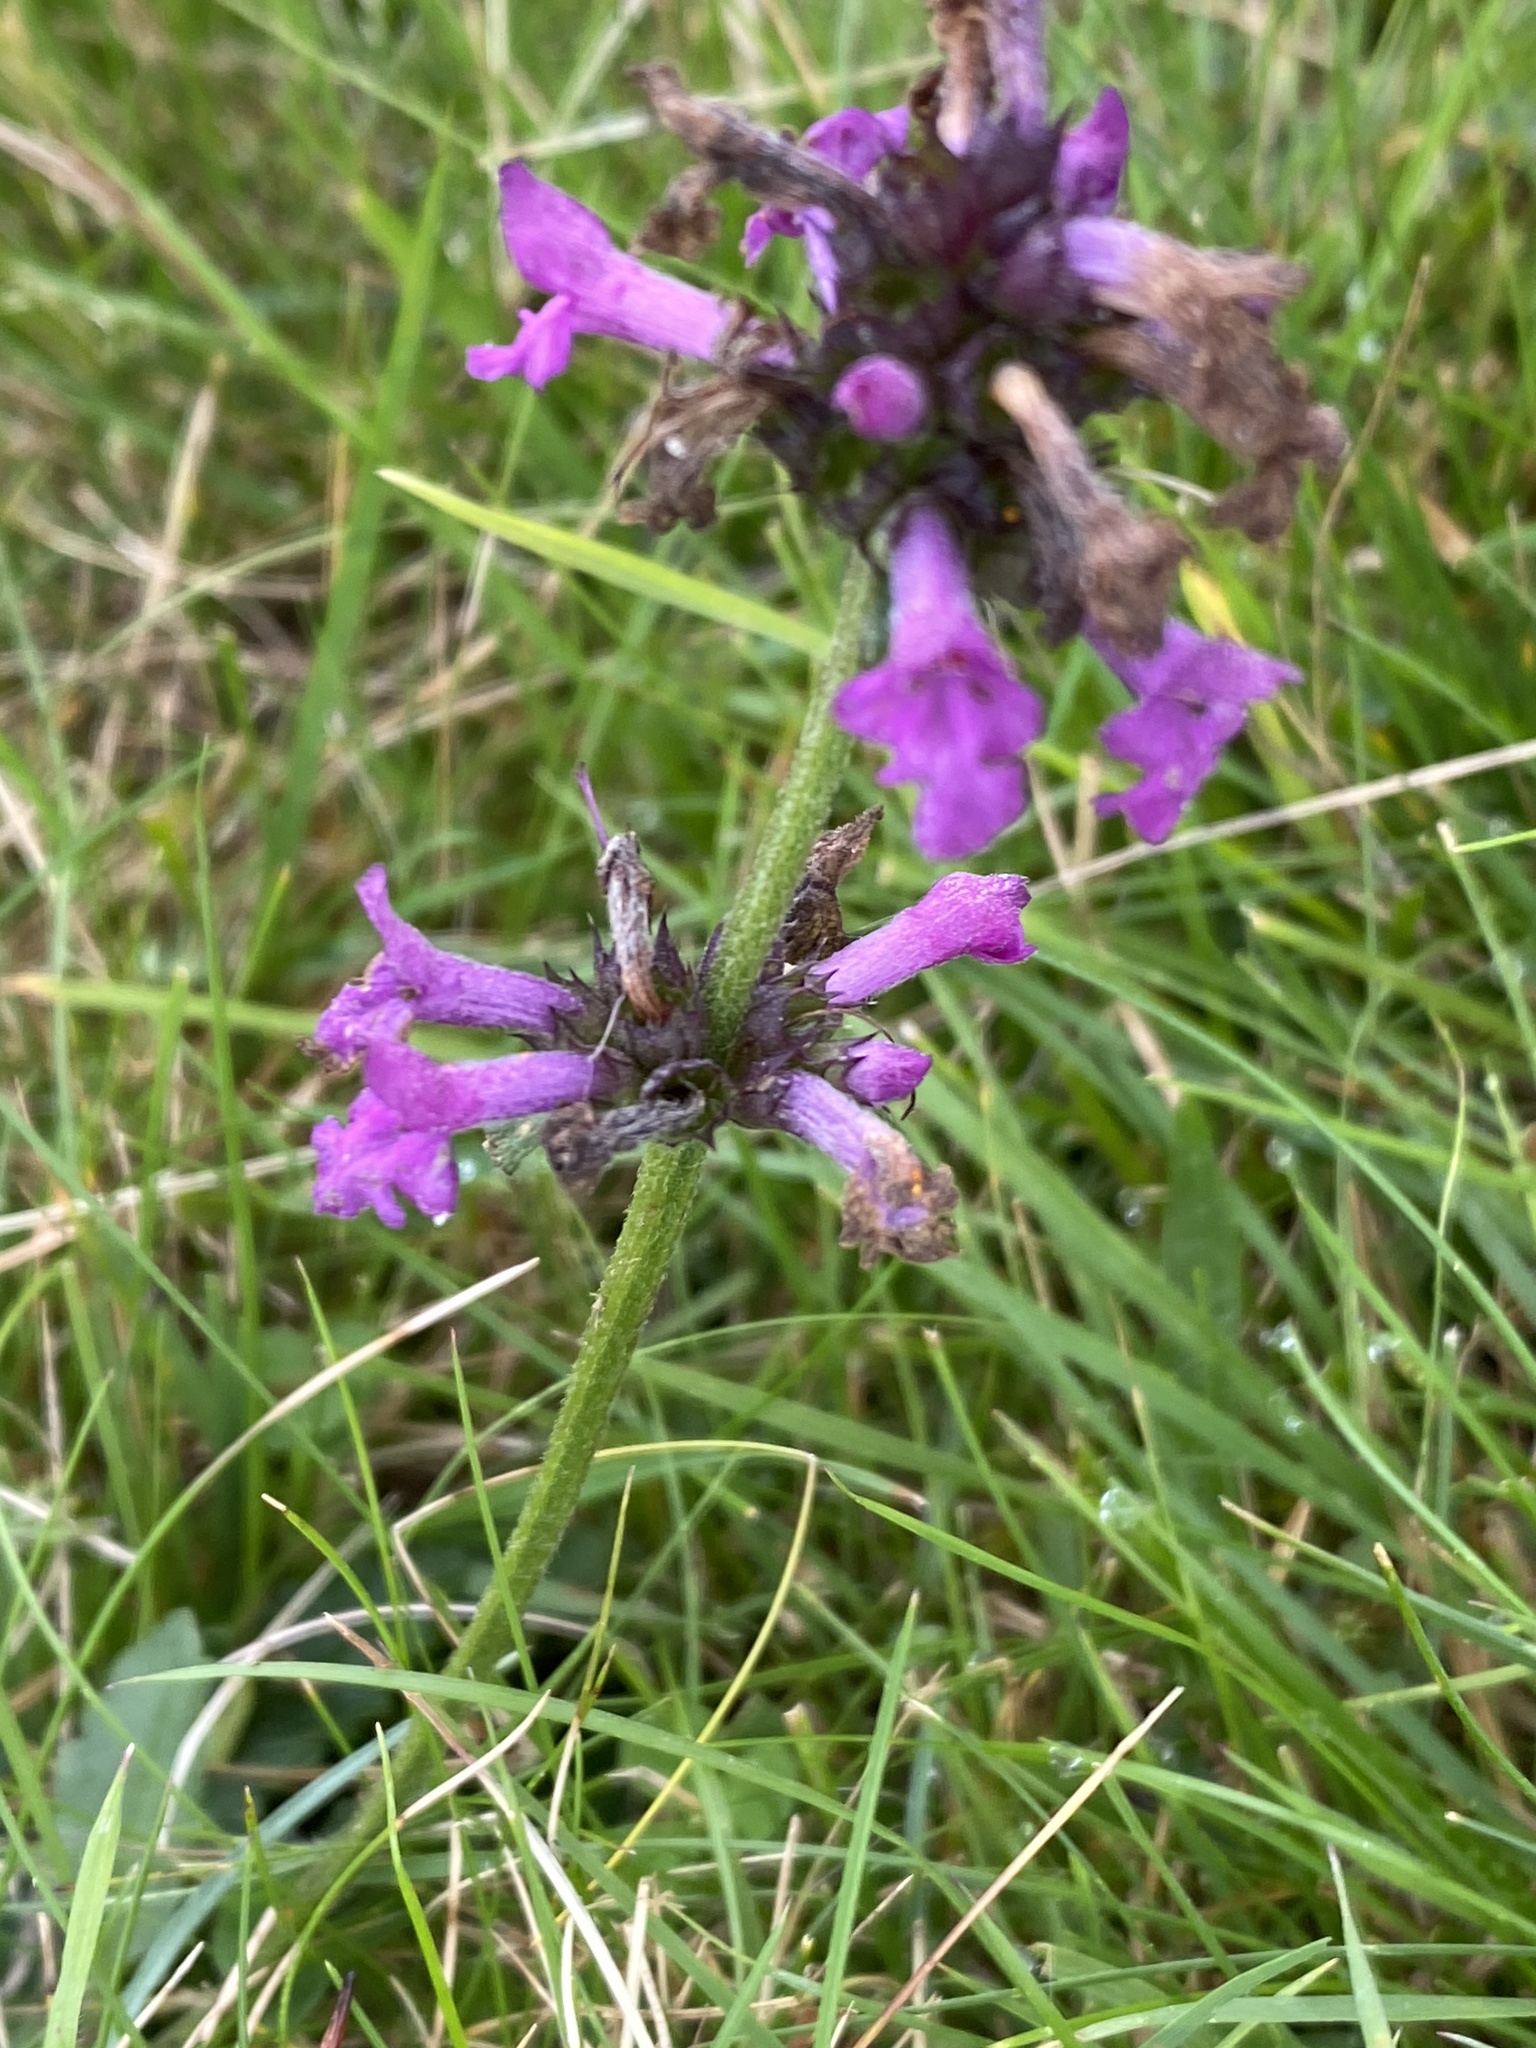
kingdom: Plantae
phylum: Tracheophyta
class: Magnoliopsida
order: Lamiales
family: Lamiaceae
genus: Betonica
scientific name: Betonica officinalis
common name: Bishop's-wort
